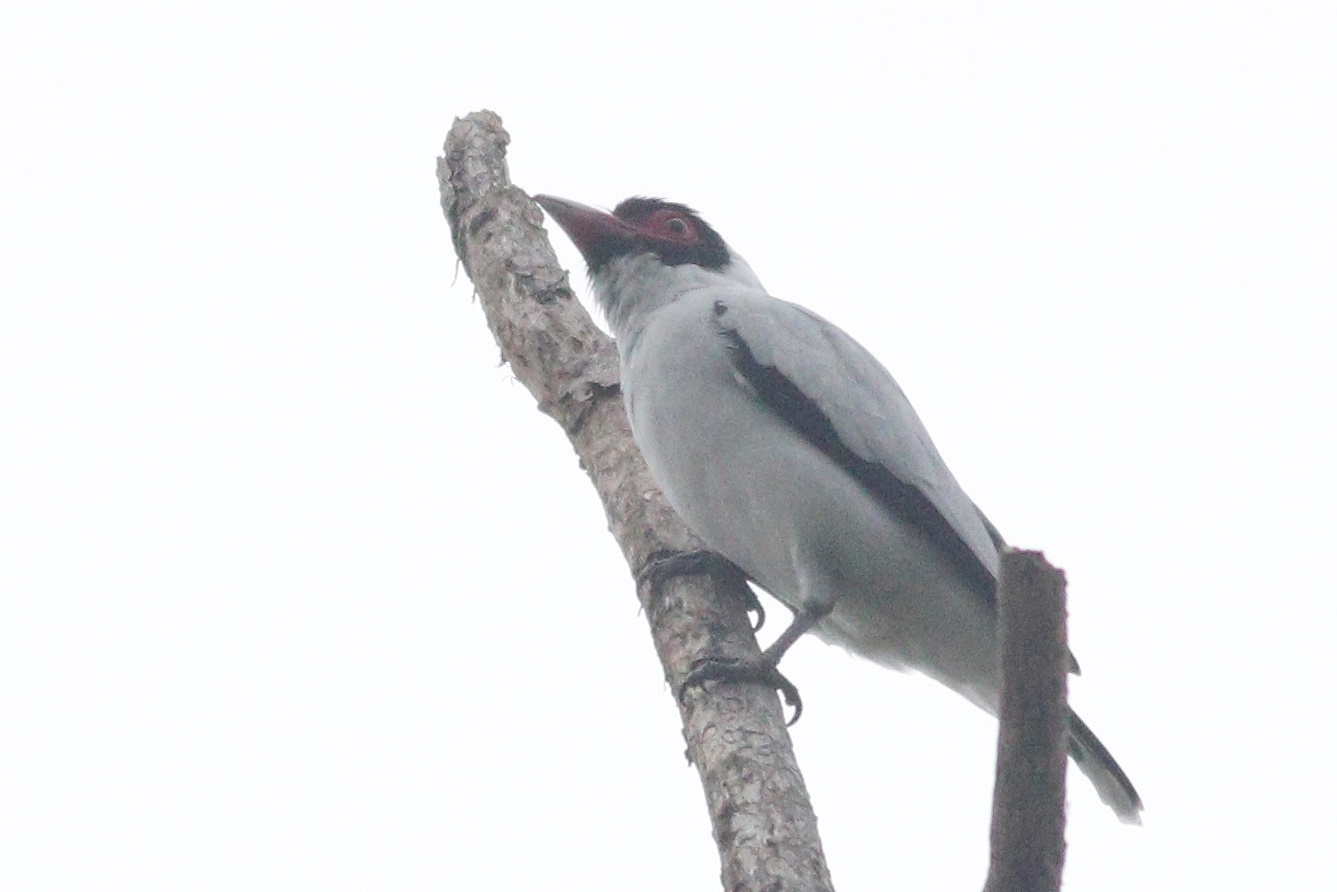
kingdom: Animalia
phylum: Chordata
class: Aves
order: Passeriformes
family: Cotingidae
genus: Tityra
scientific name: Tityra semifasciata
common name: Masked tityra
